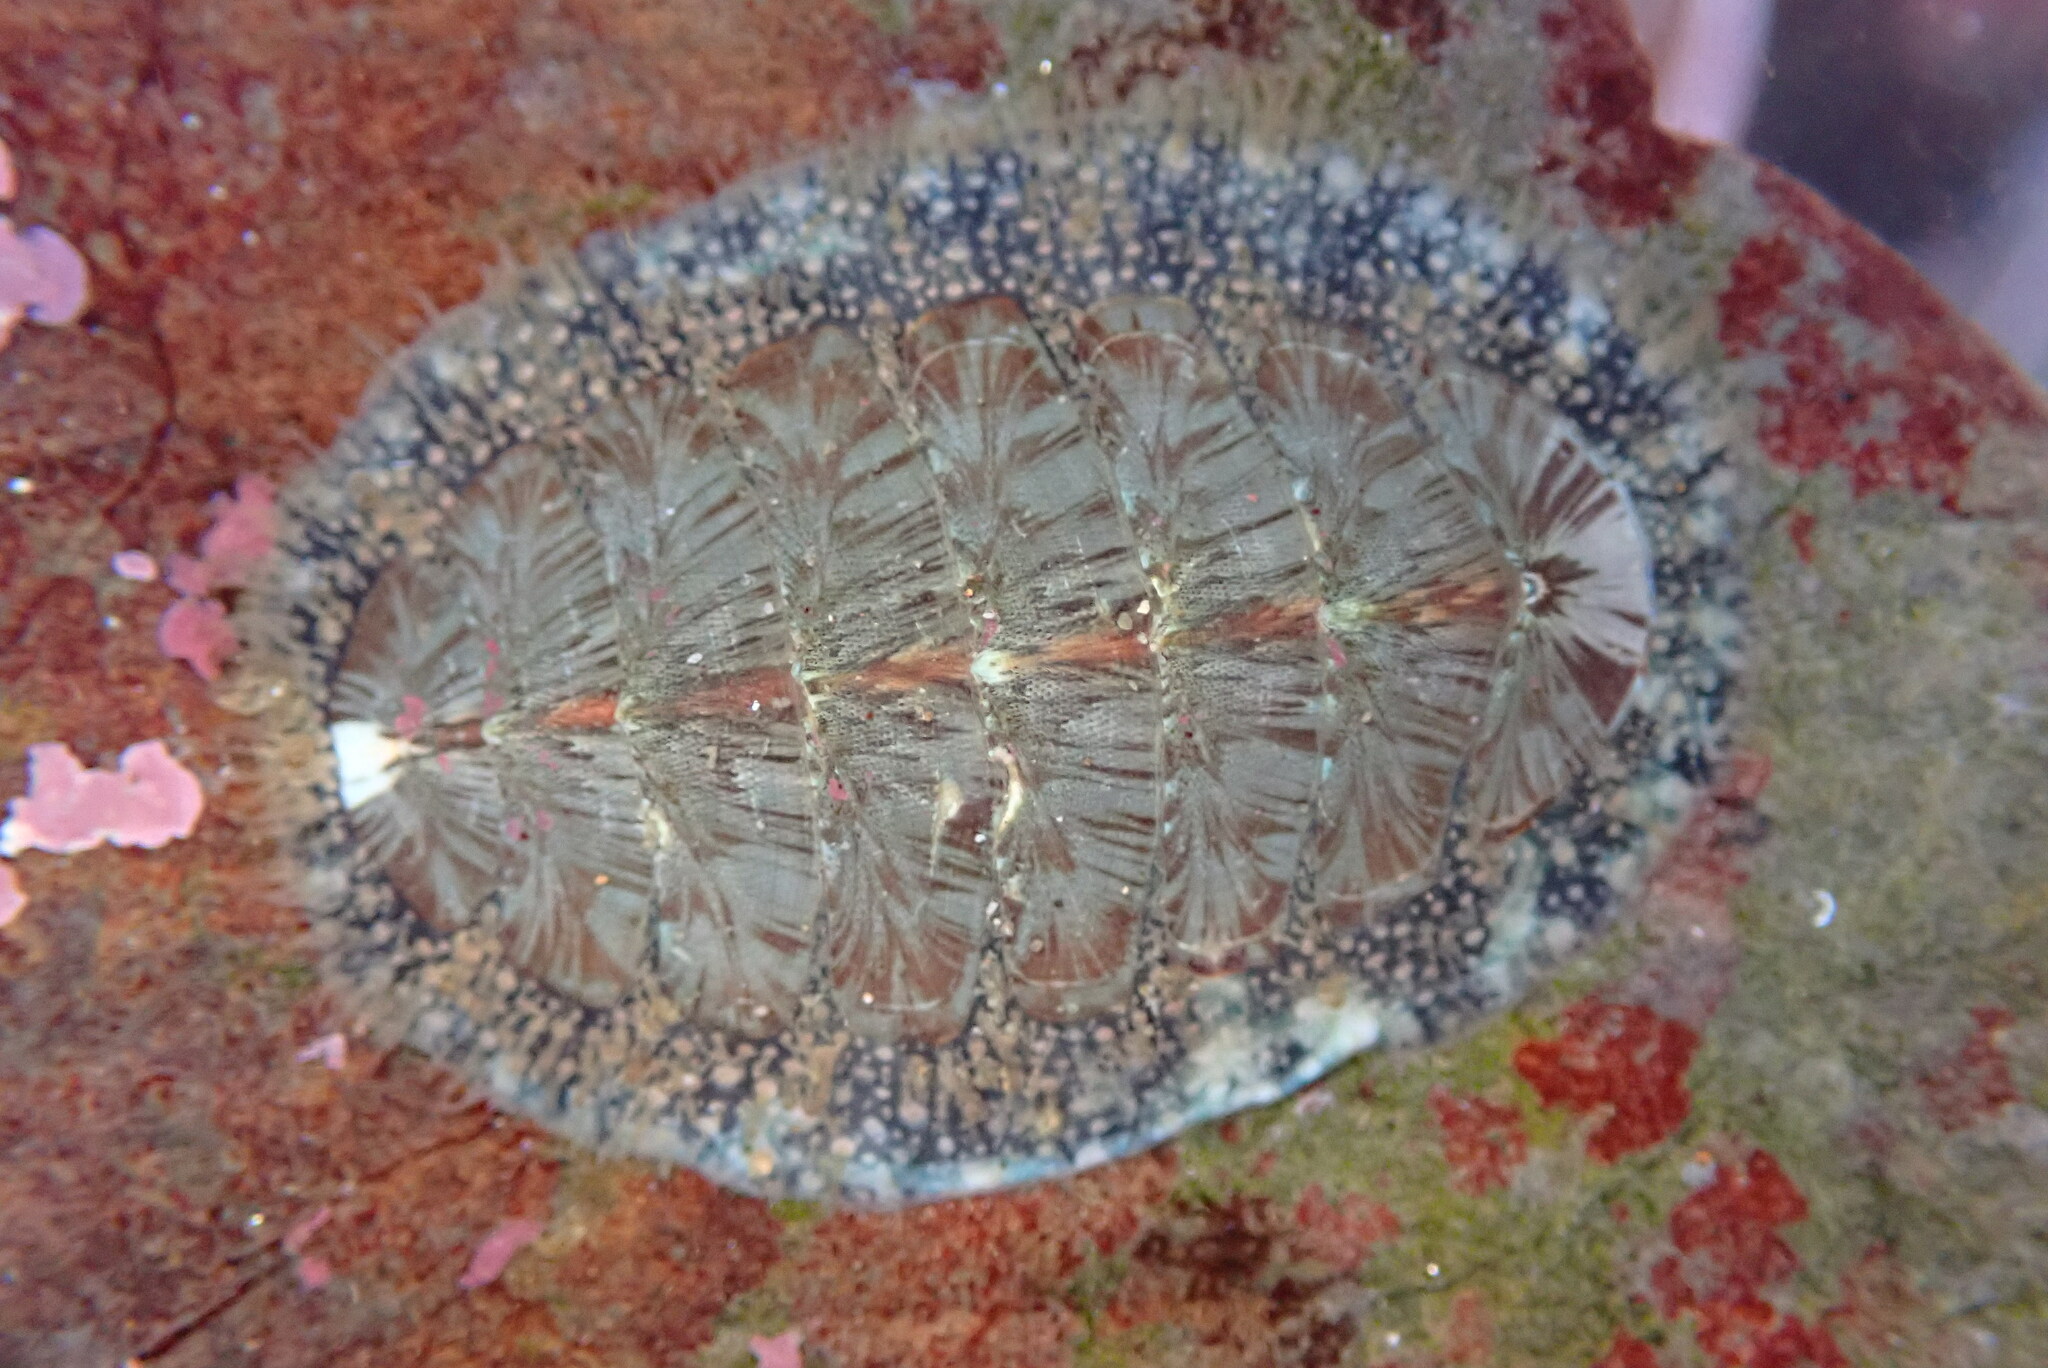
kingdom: Animalia
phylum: Mollusca
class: Polyplacophora
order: Chitonida
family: Mopaliidae
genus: Mopalia
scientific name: Mopalia lignosa
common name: Woody chiton
